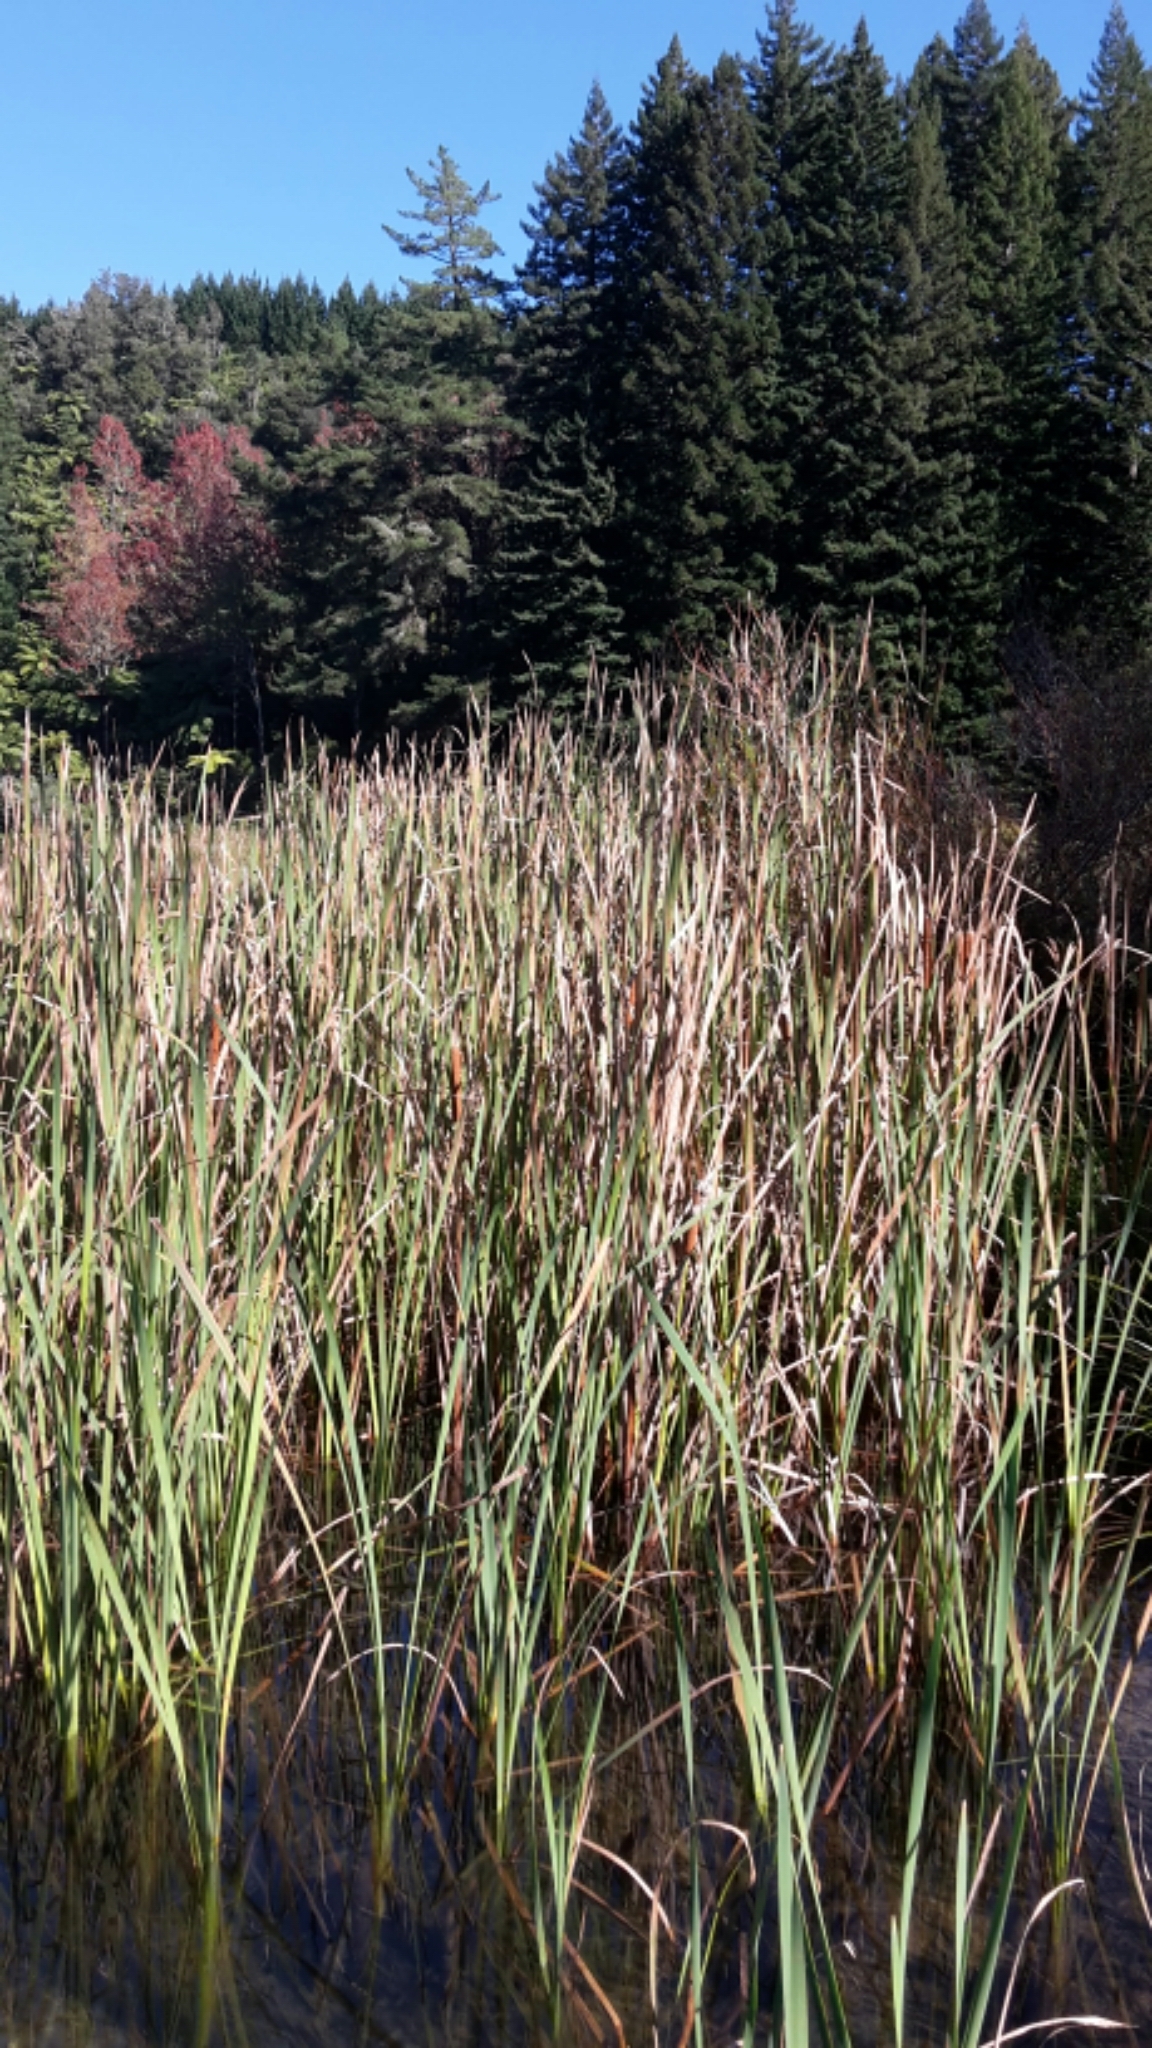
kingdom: Plantae
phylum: Tracheophyta
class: Liliopsida
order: Poales
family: Typhaceae
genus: Typha
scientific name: Typha orientalis
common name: Bullrush
